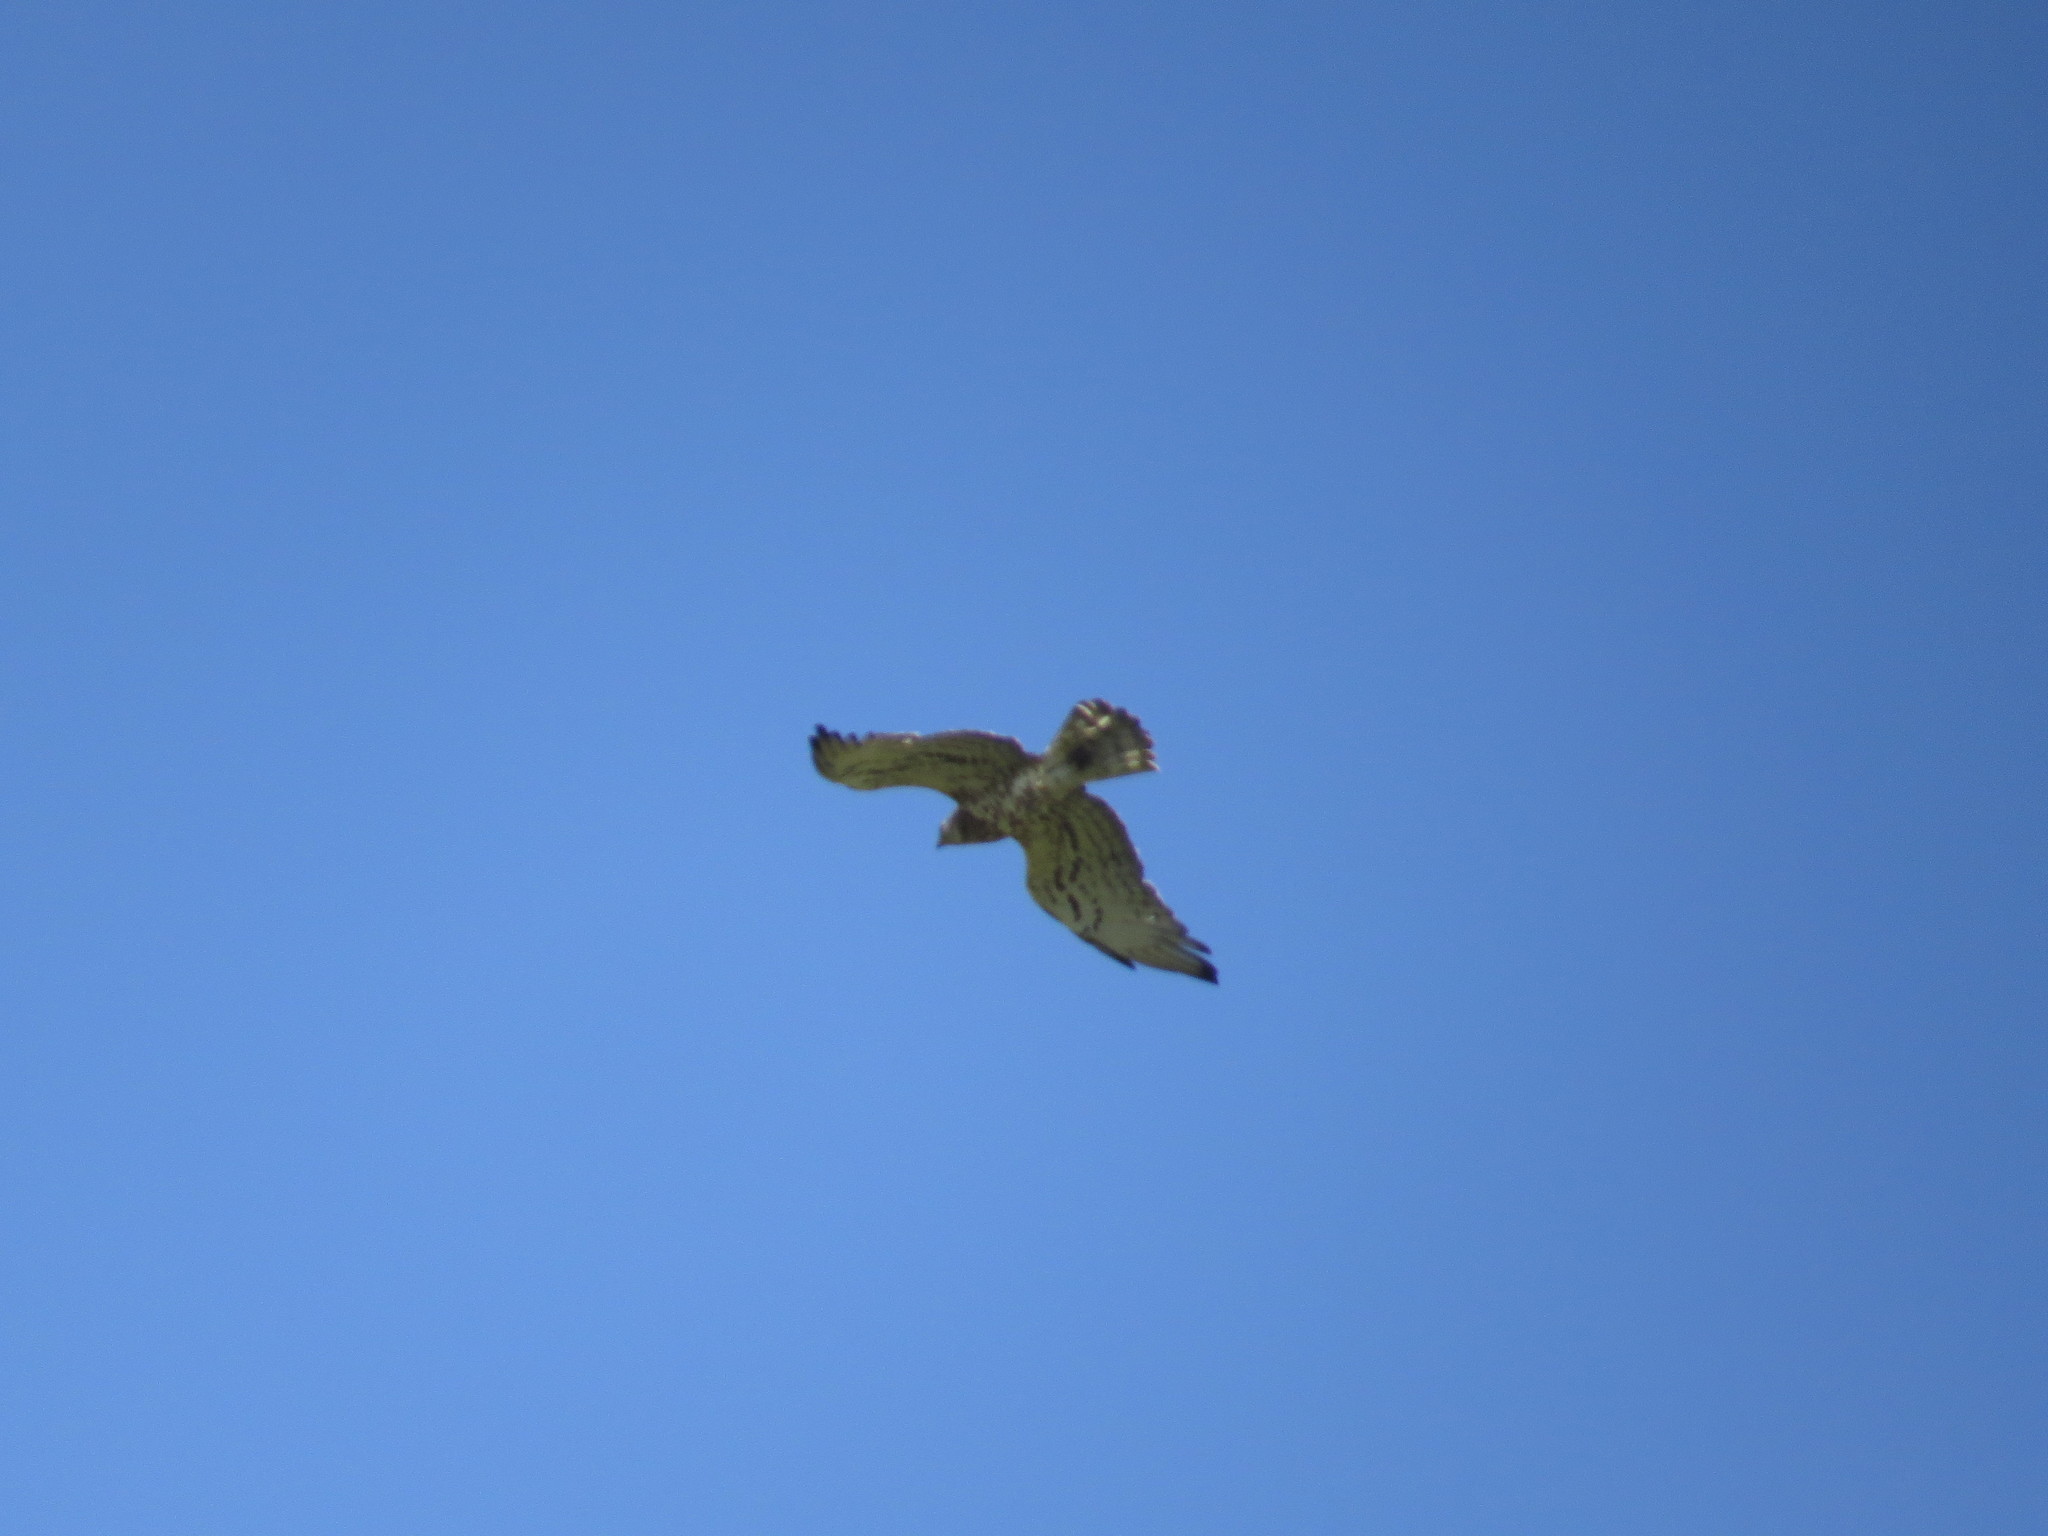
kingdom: Animalia
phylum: Chordata
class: Aves
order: Accipitriformes
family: Accipitridae
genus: Circaetus
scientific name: Circaetus gallicus
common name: Short-toed snake eagle
